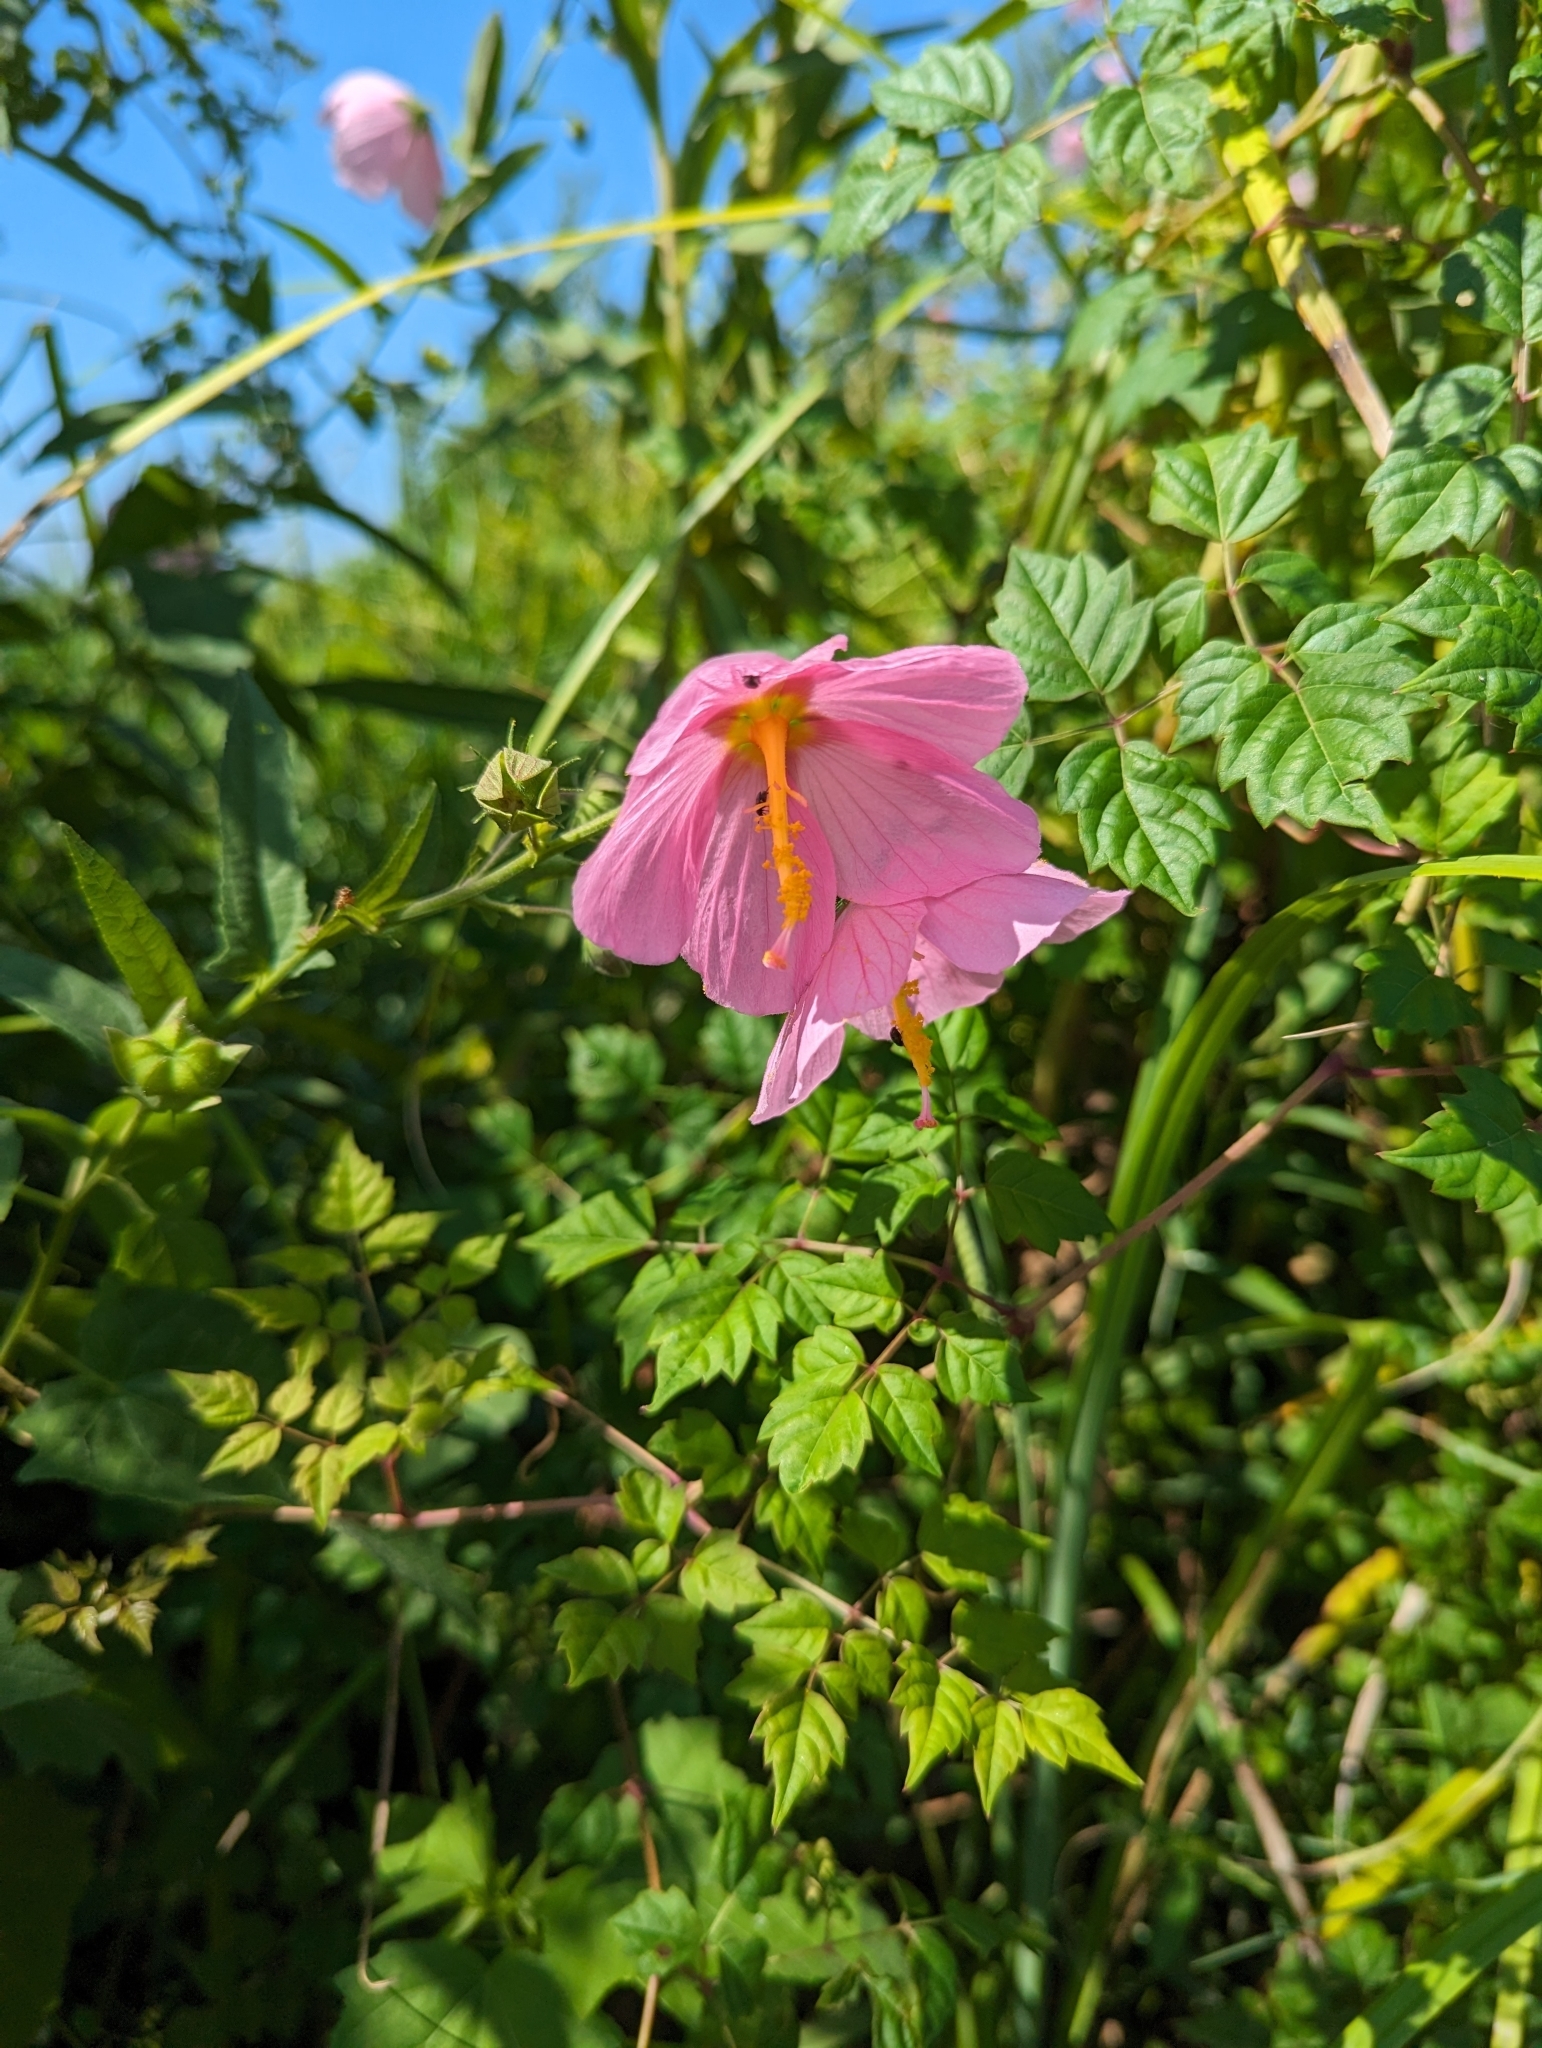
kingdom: Plantae
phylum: Tracheophyta
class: Magnoliopsida
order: Malvales
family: Malvaceae
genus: Kosteletzkya
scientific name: Kosteletzkya pentacarpos
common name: Virginia saltmarsh mallow
